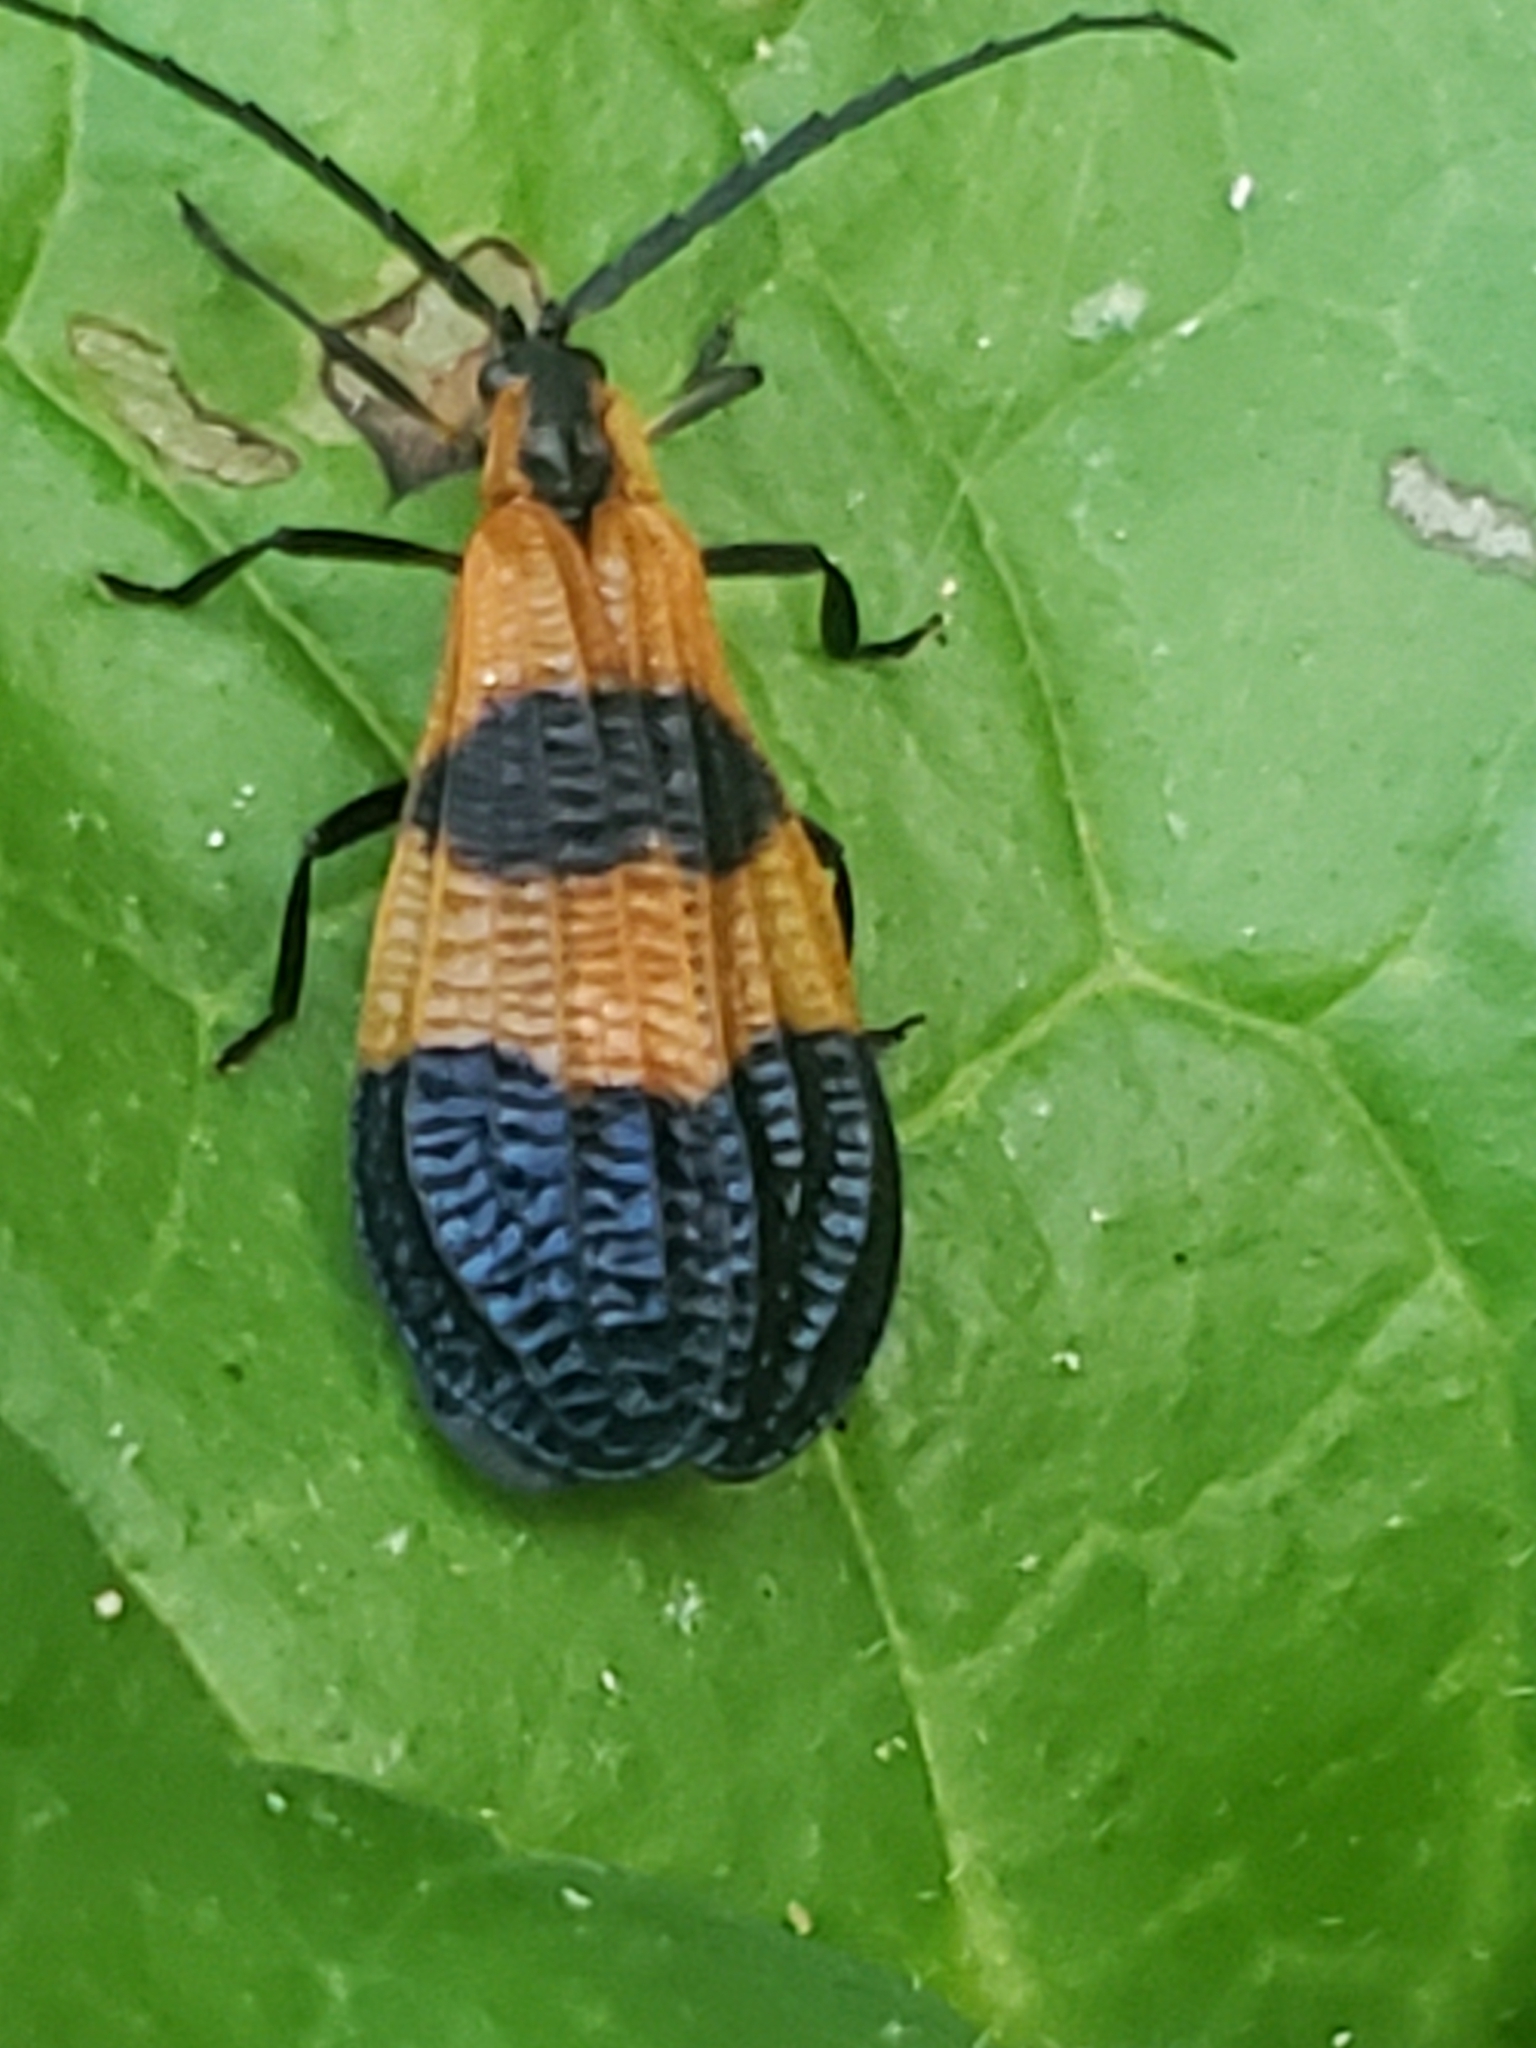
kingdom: Animalia
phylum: Arthropoda
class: Insecta
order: Coleoptera
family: Lycidae
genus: Calopteron
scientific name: Calopteron terminale
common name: End band net-winged beetle
